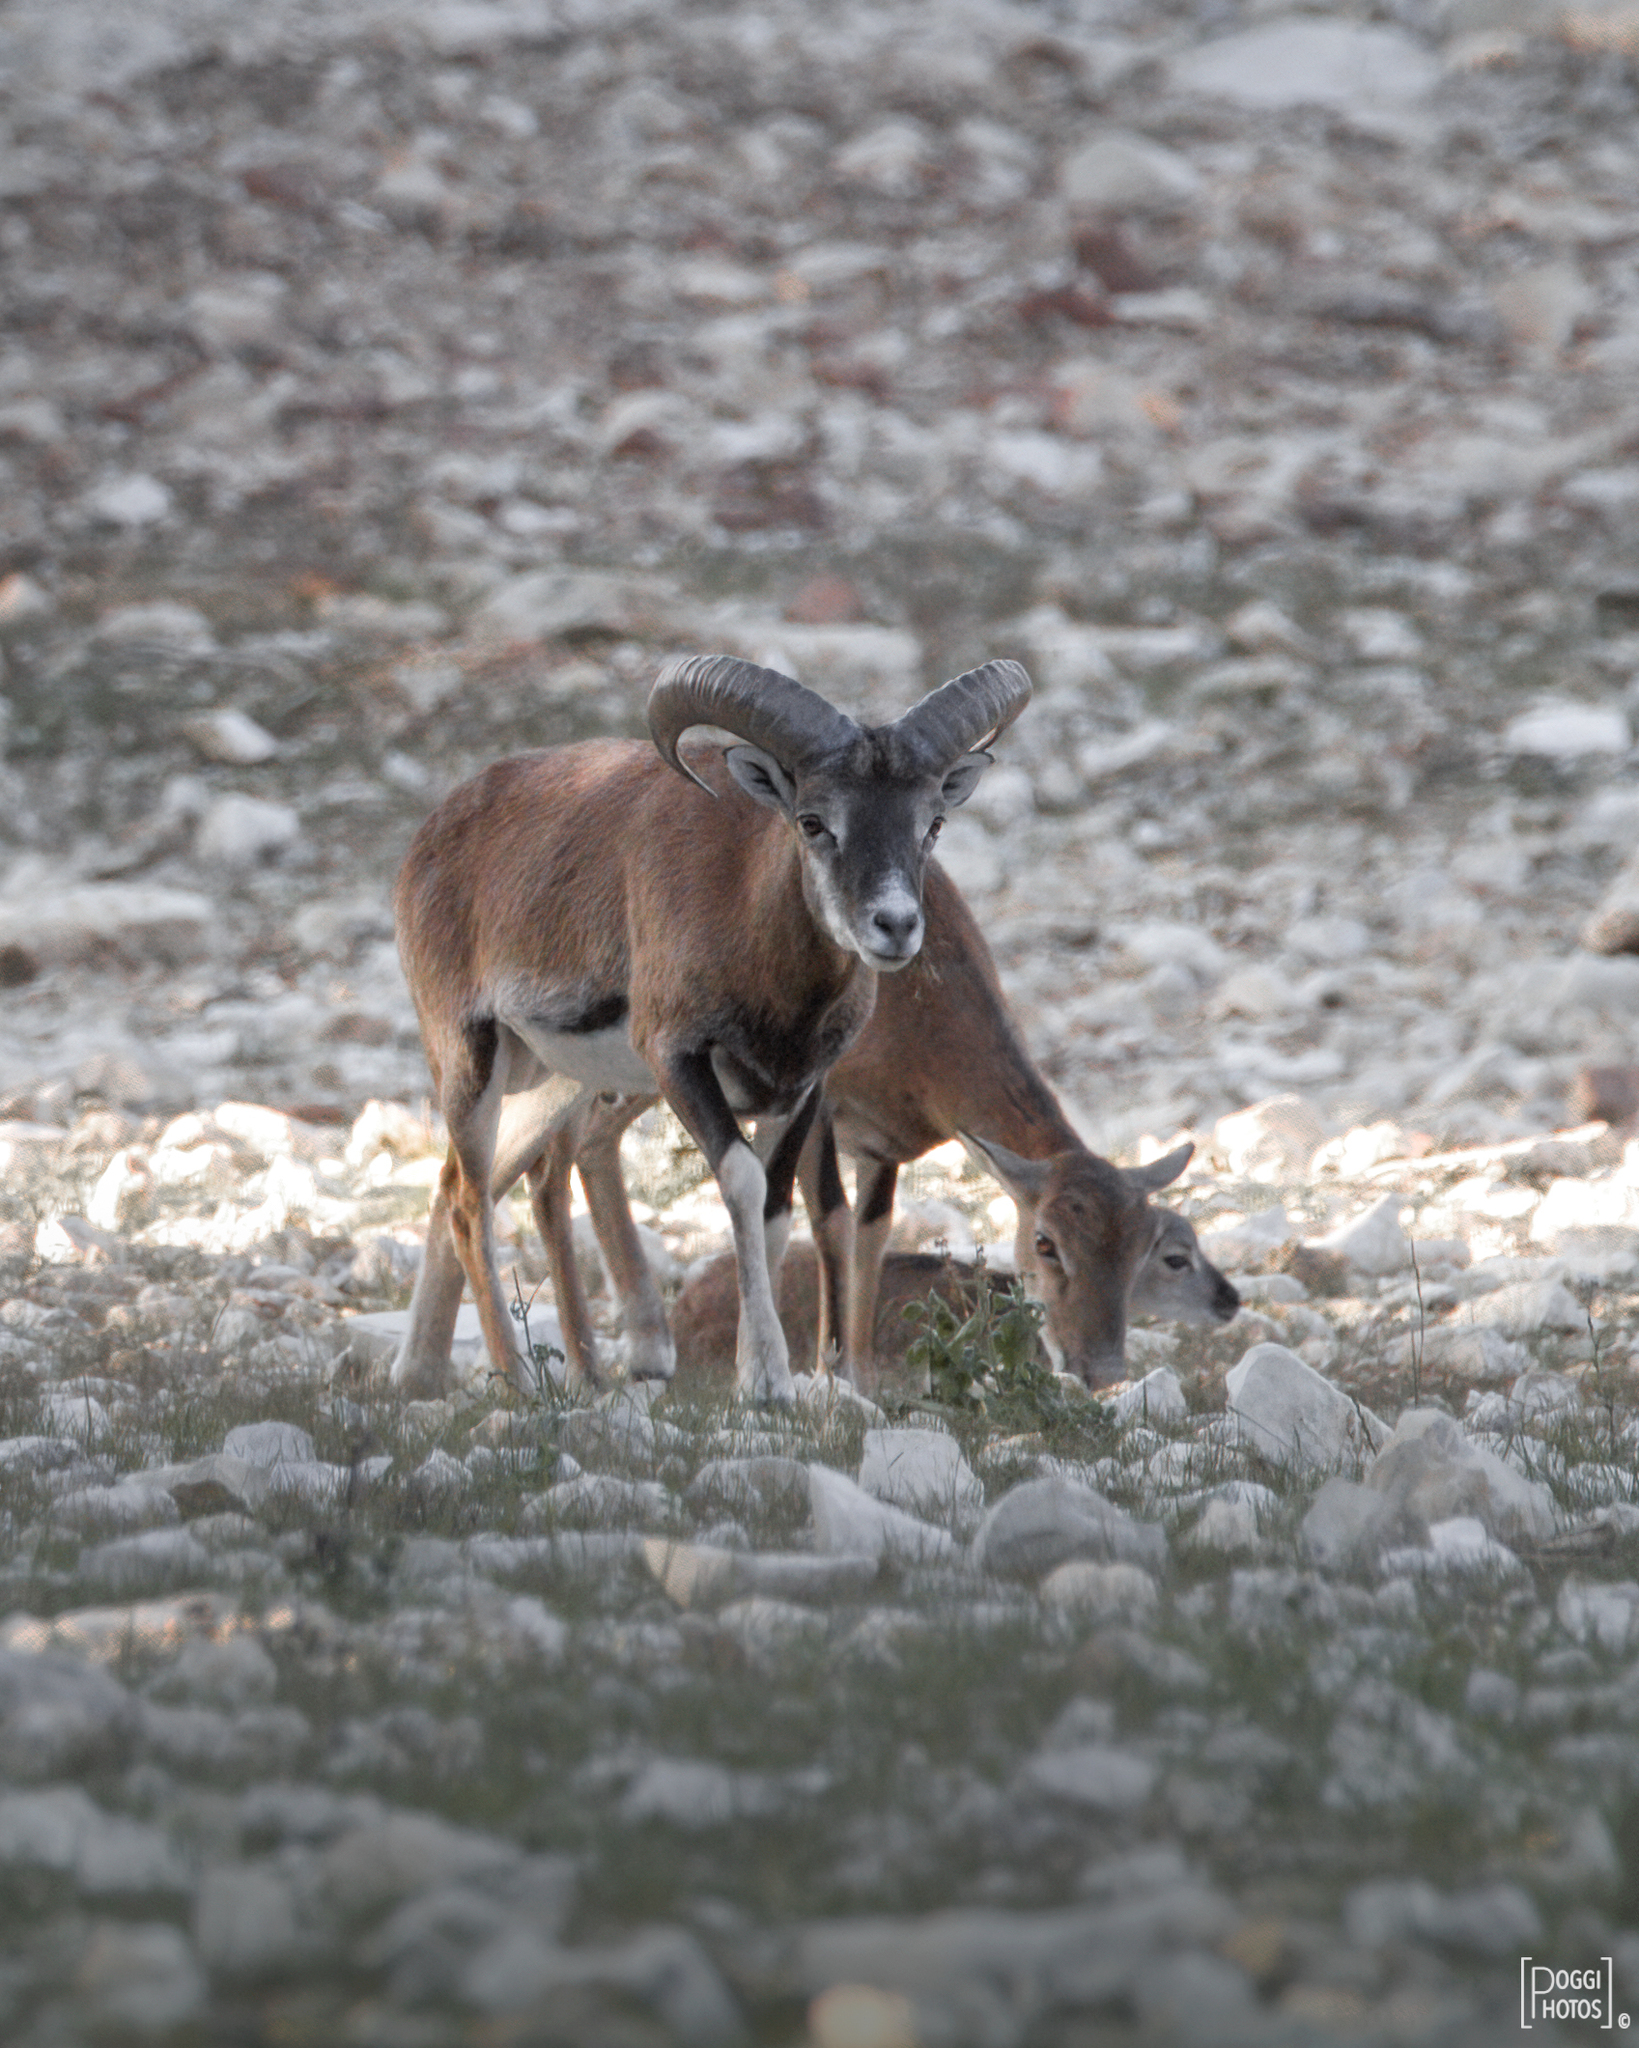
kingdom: Animalia
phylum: Chordata
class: Mammalia
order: Artiodactyla
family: Bovidae
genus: Ovis
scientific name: Ovis aries
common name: Domestic sheep
